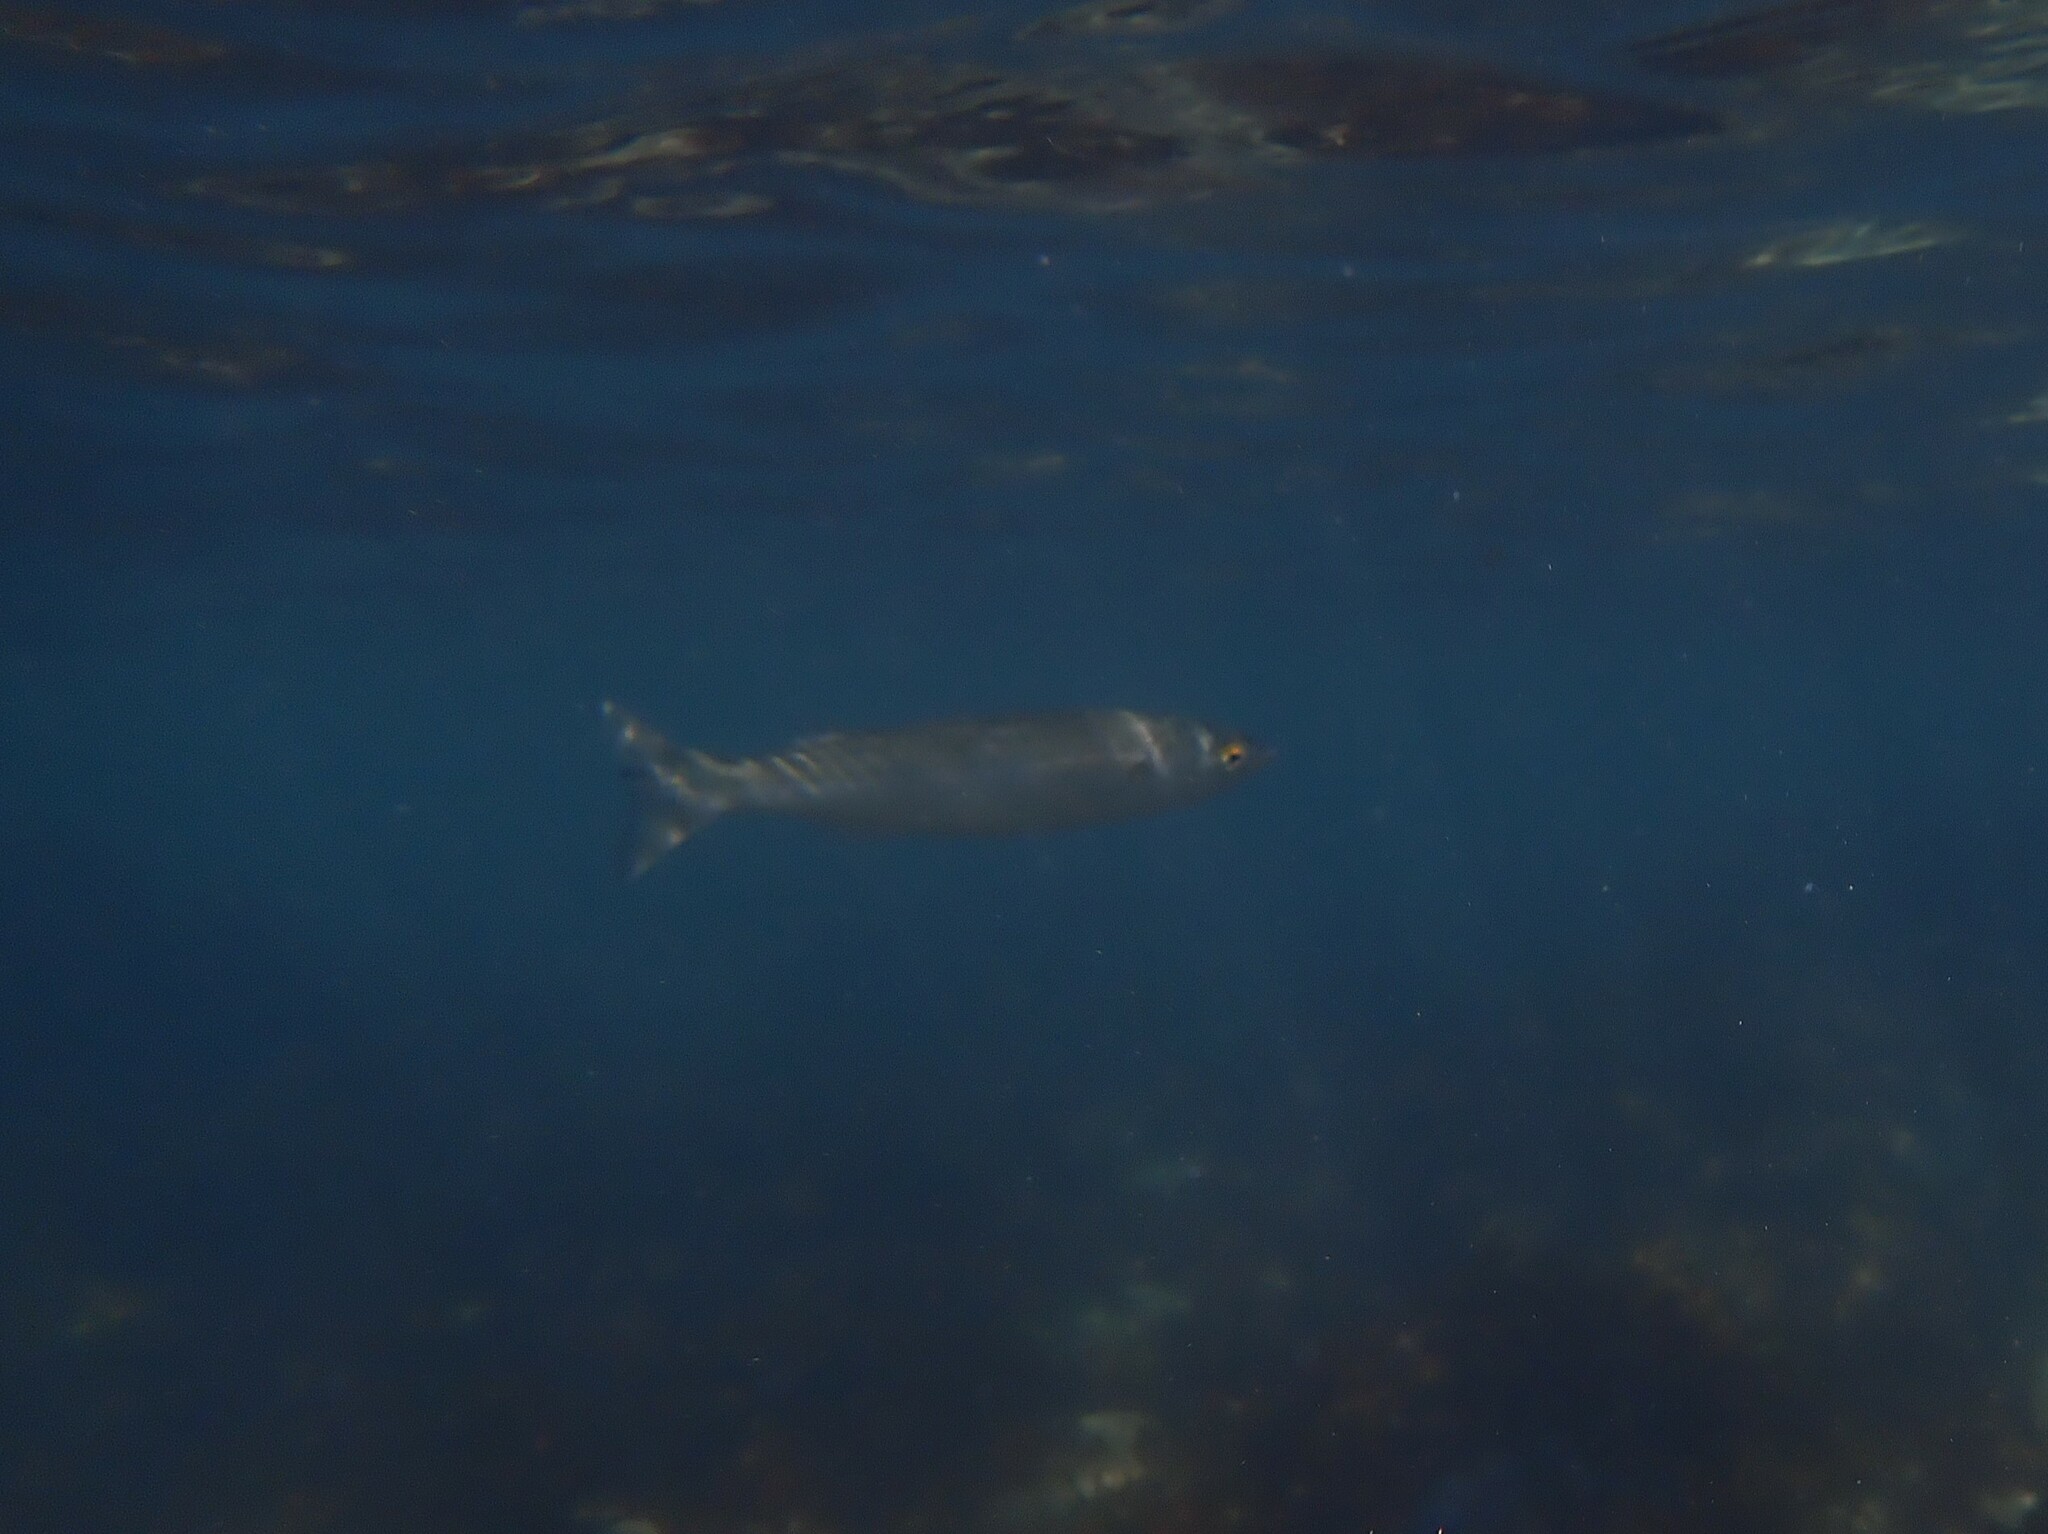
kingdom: Animalia
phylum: Chordata
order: Mugiliformes
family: Mugilidae
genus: Aldrichetta
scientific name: Aldrichetta forsteri
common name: Yellow-eye mullet
